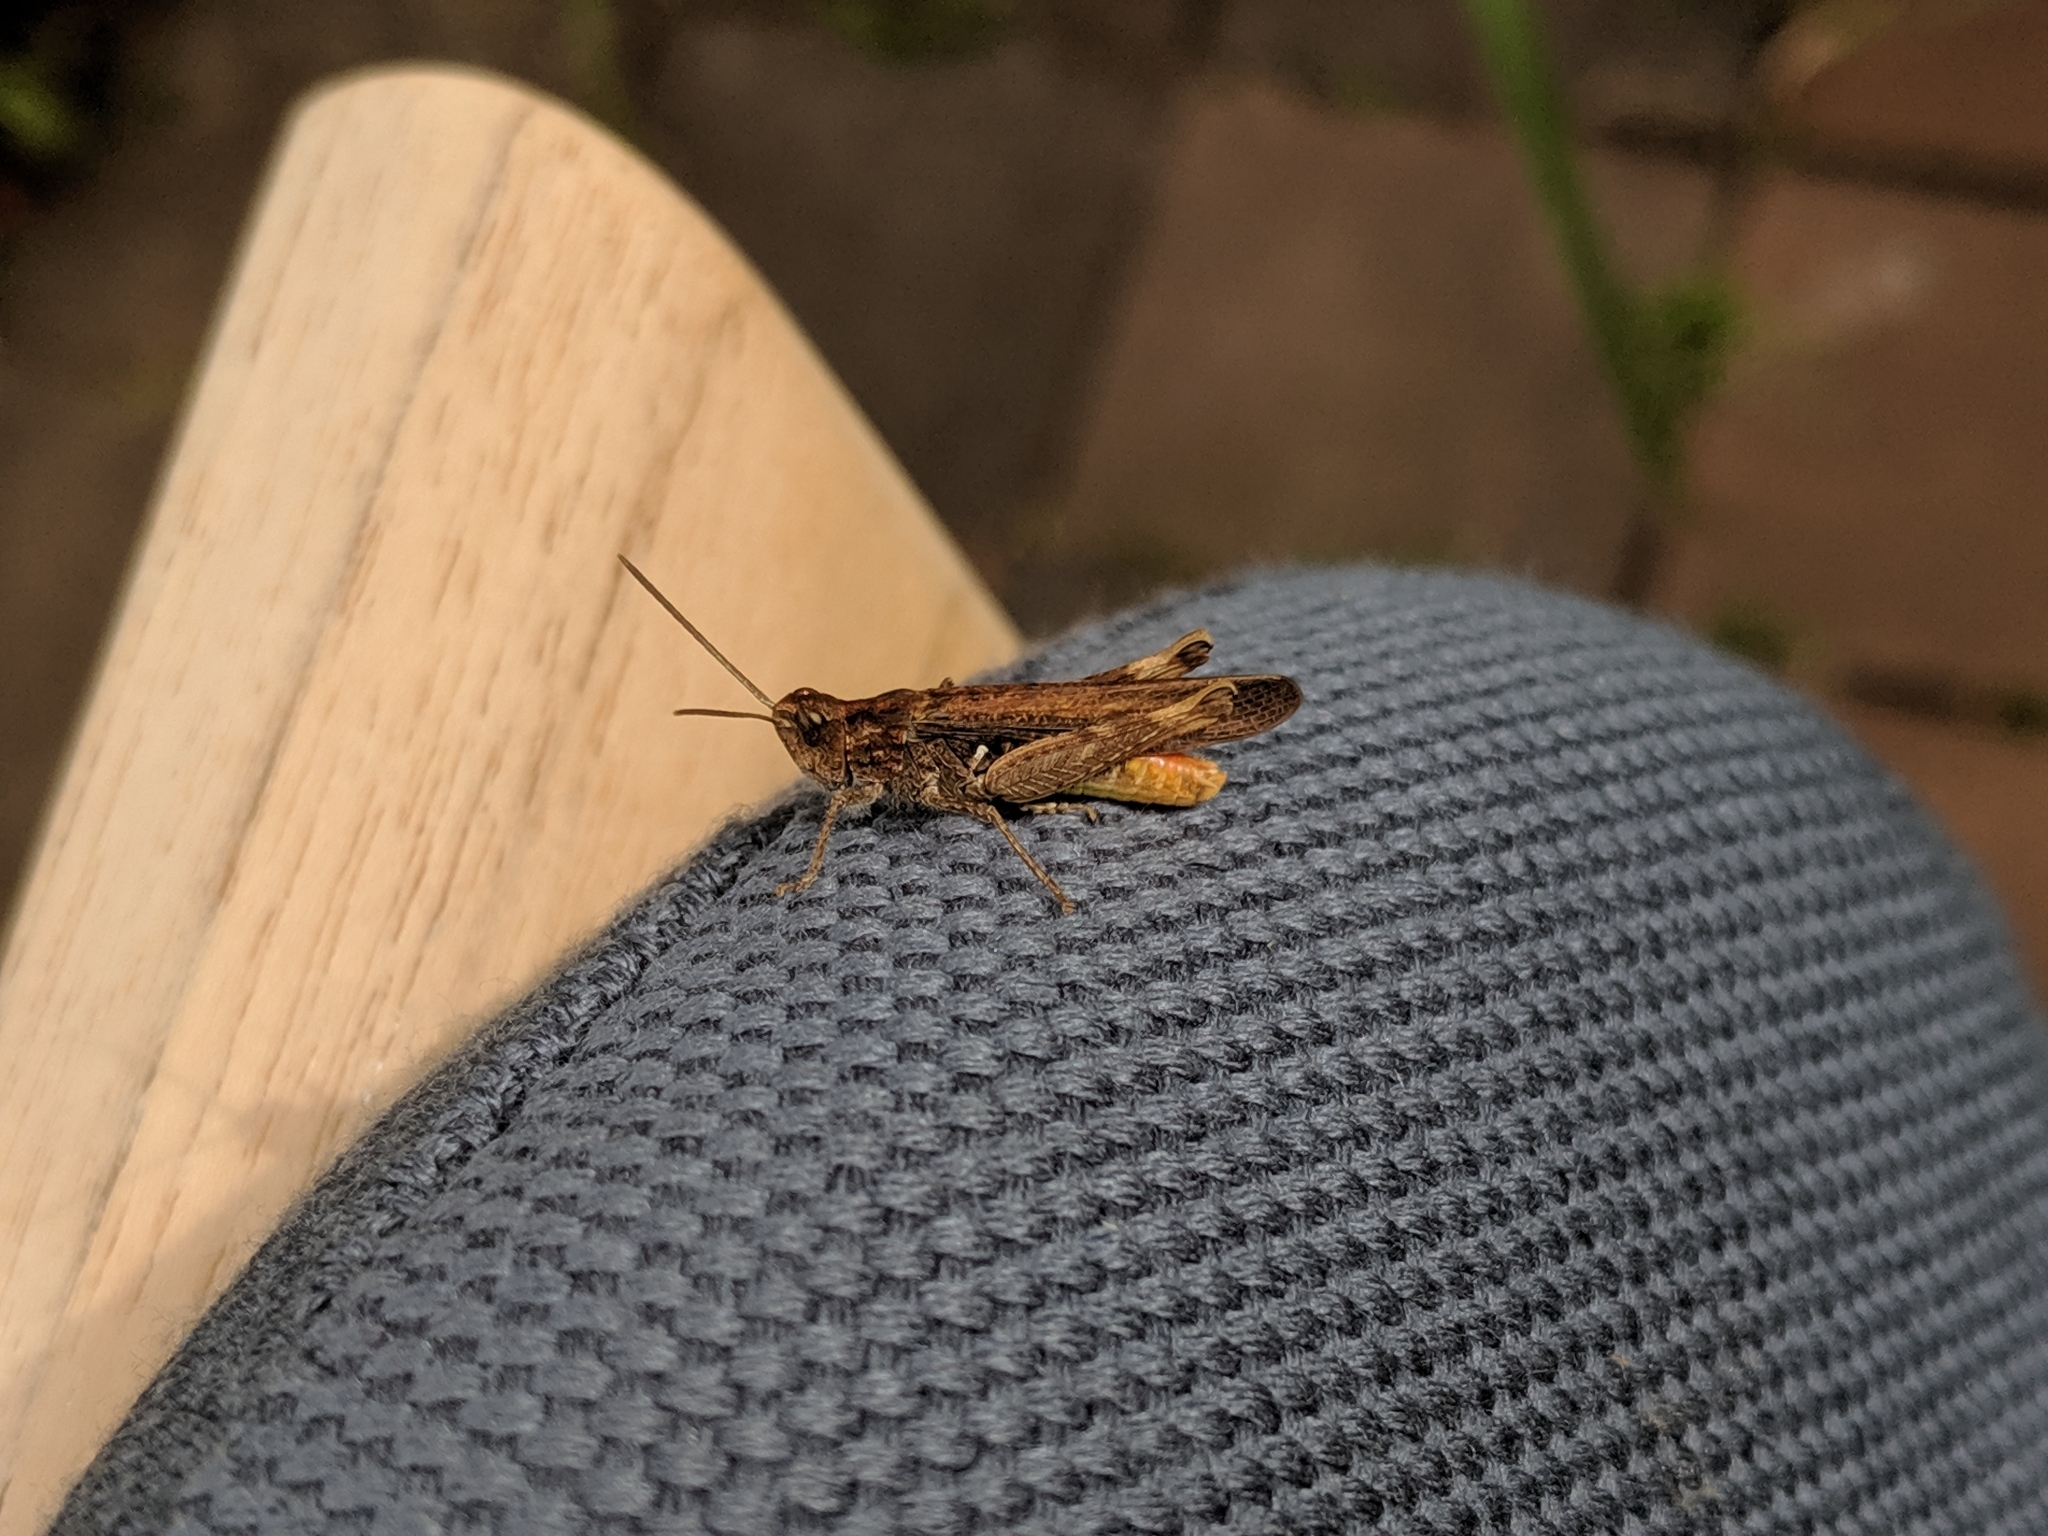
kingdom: Animalia
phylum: Arthropoda
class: Insecta
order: Orthoptera
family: Acrididae
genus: Chorthippus
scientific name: Chorthippus brunneus
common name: Field grasshopper
